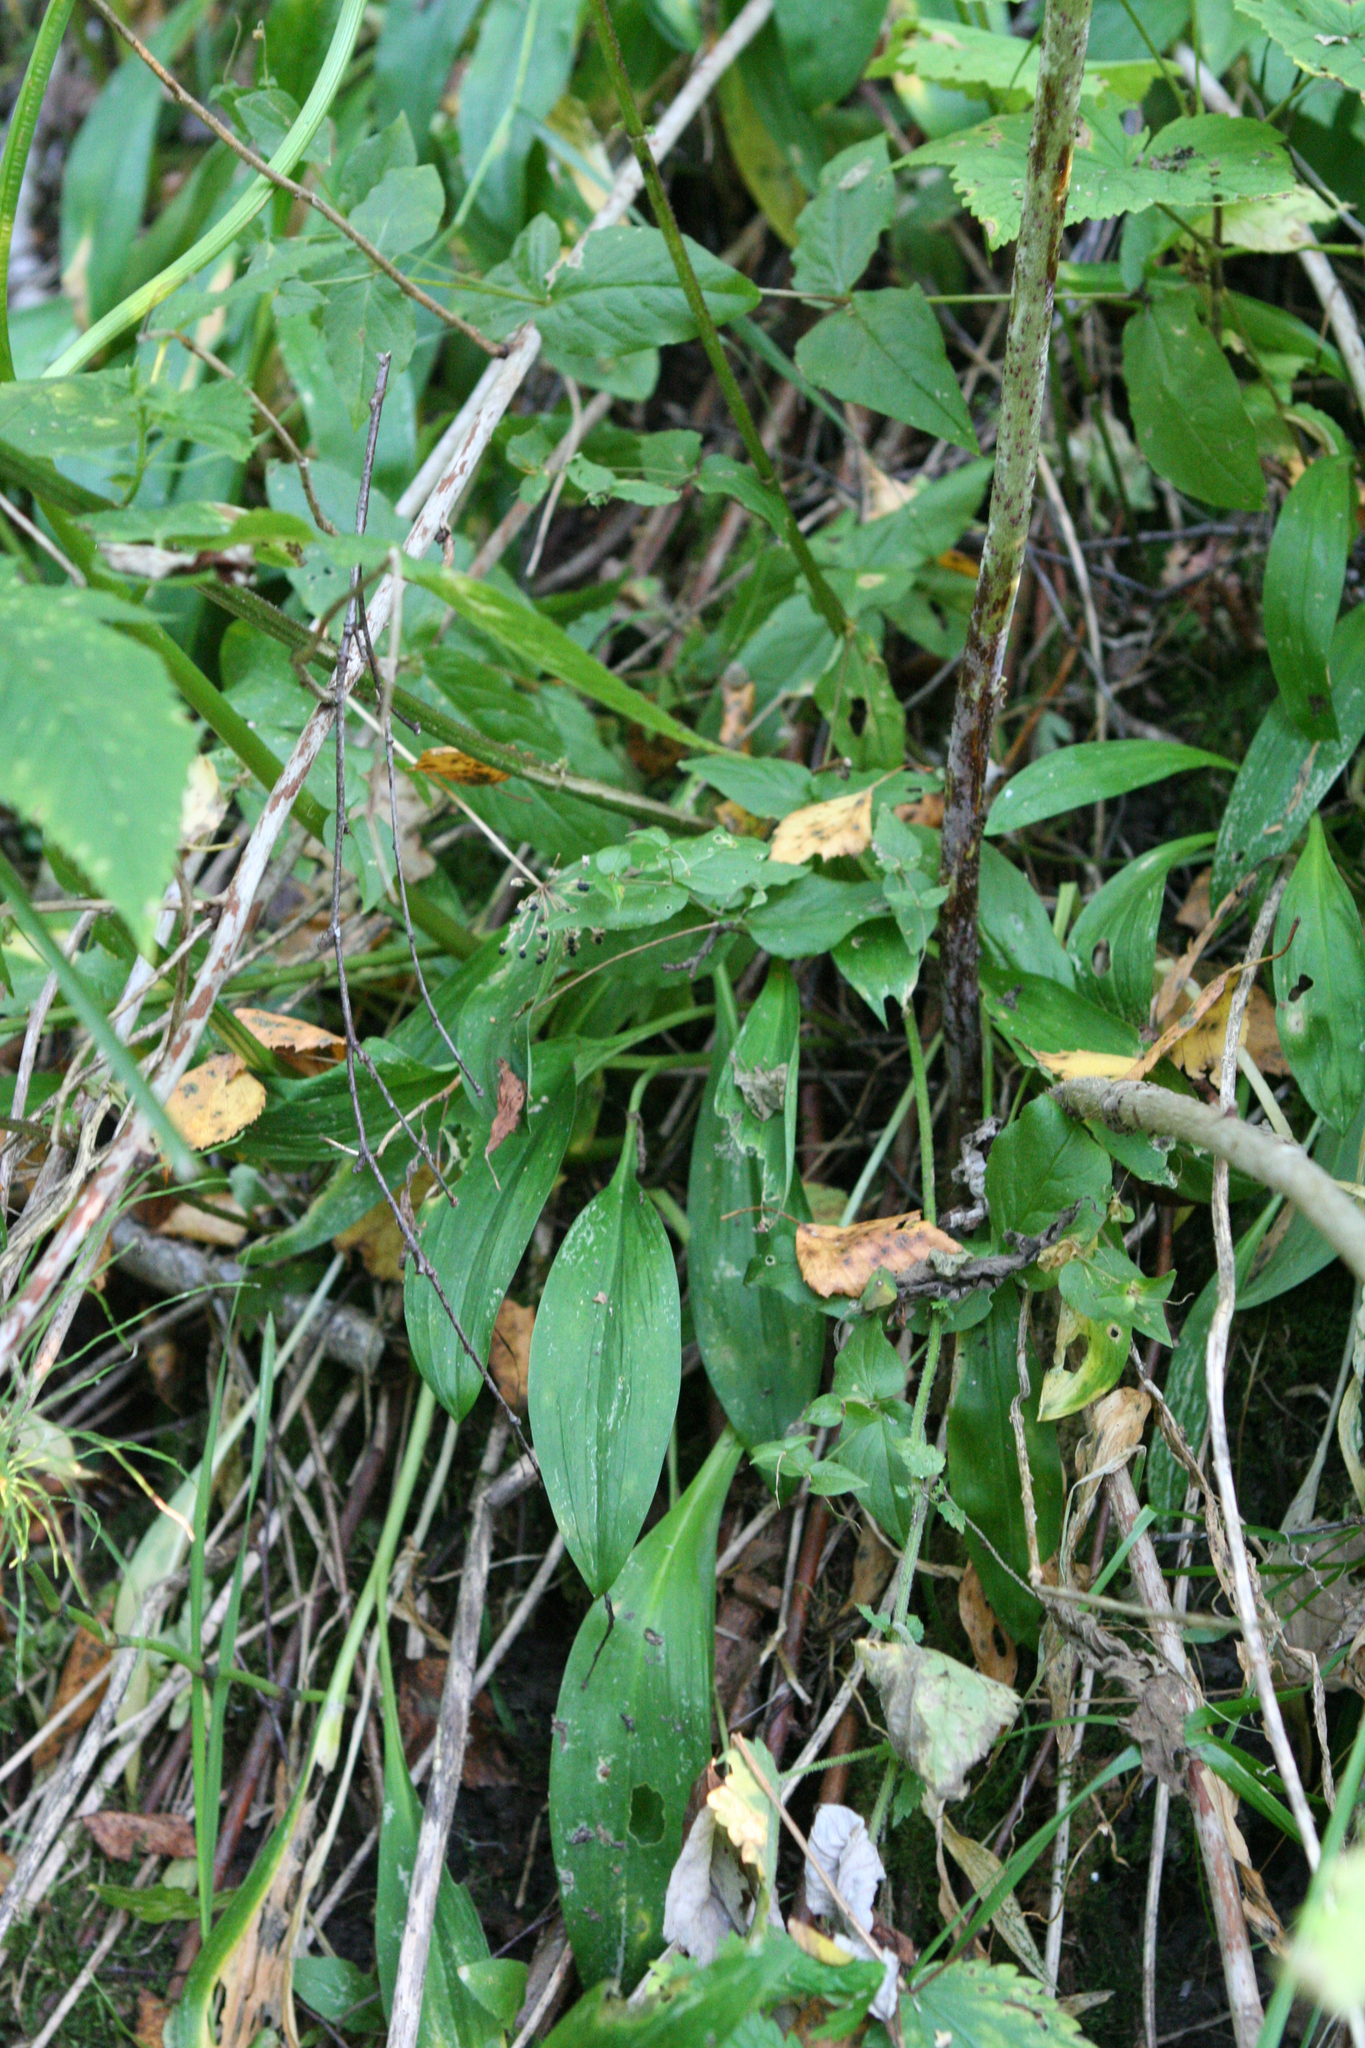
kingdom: Plantae
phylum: Tracheophyta
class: Liliopsida
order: Asparagales
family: Amaryllidaceae
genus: Allium
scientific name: Allium microdictyon
